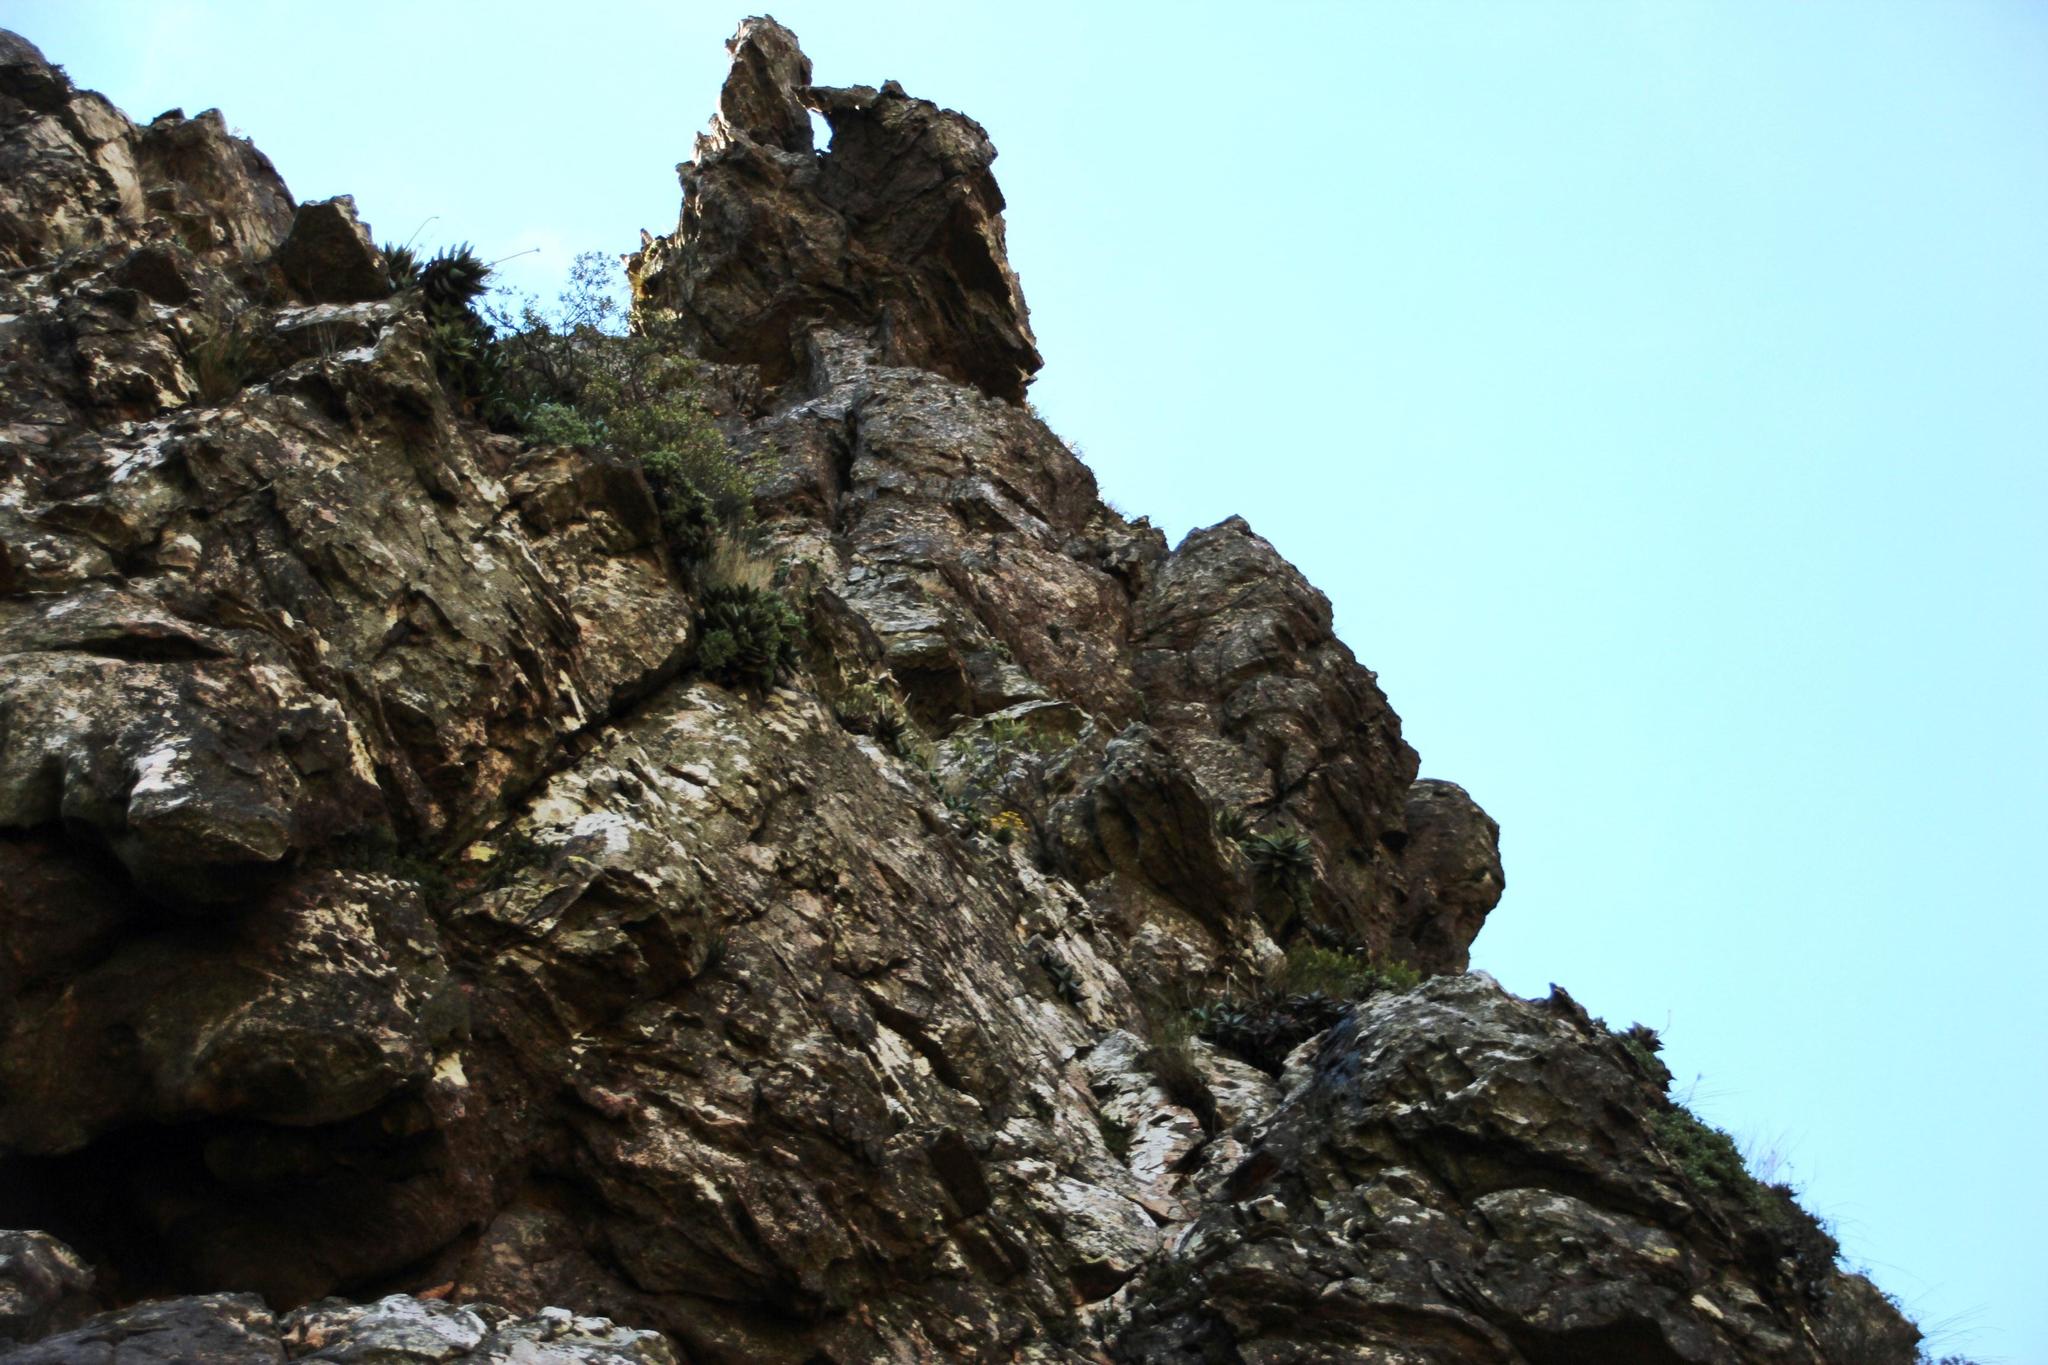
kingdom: Plantae
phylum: Tracheophyta
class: Liliopsida
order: Asparagales
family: Asphodelaceae
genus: Aloe
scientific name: Aloe perfoliata
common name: Mitra aloe
